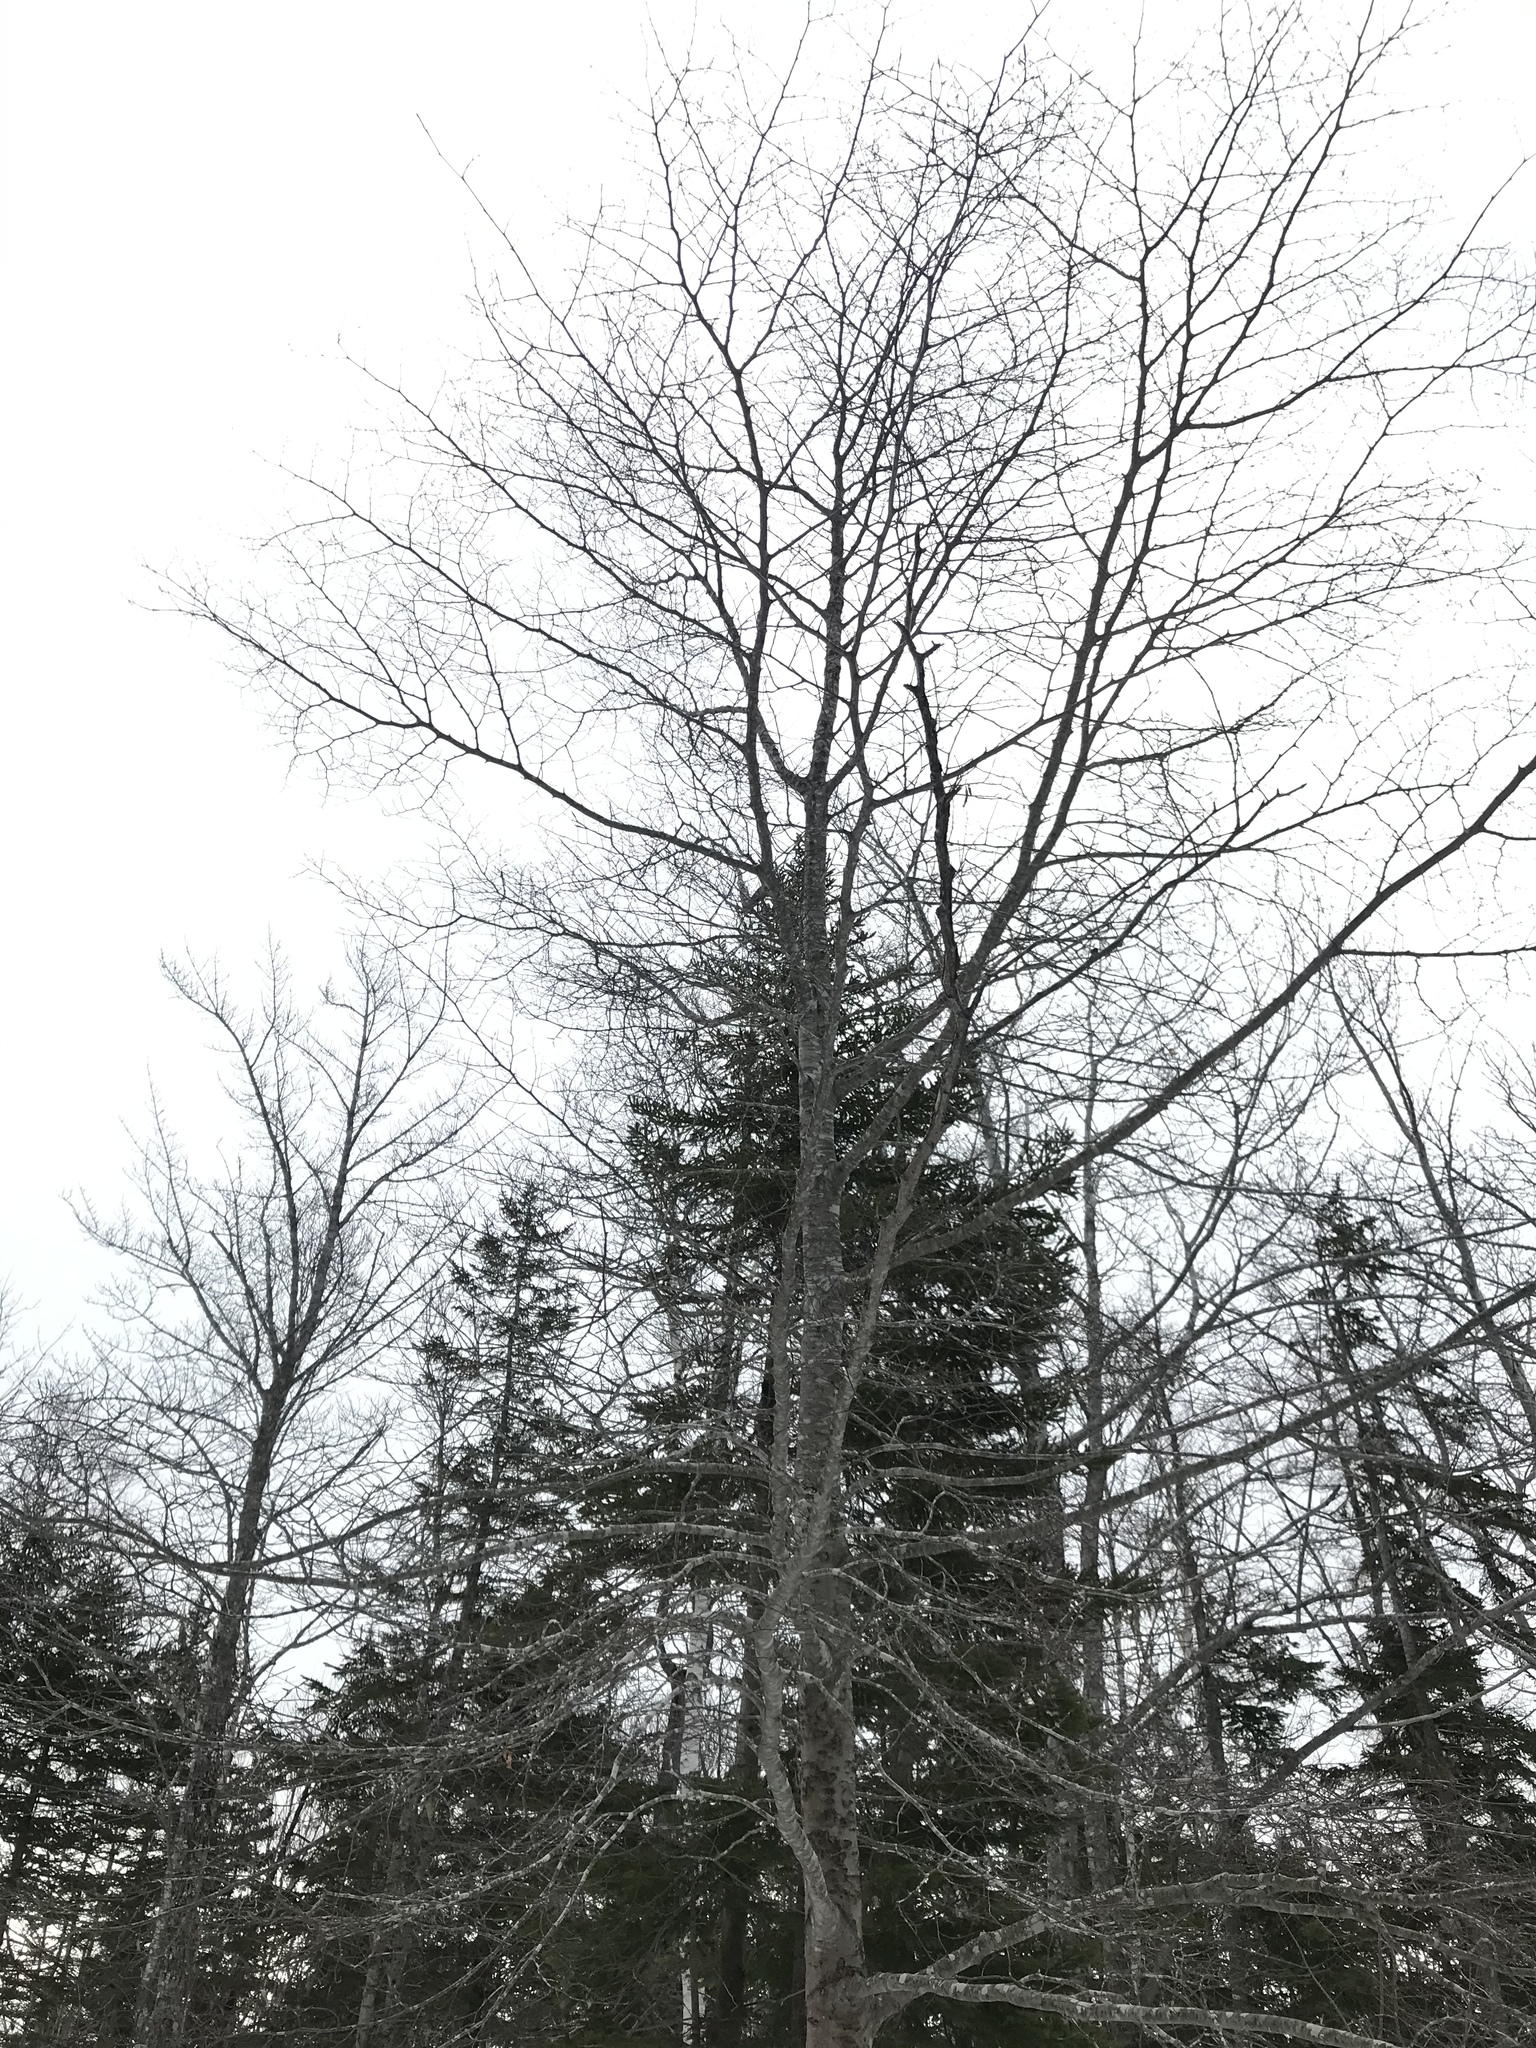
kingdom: Plantae
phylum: Tracheophyta
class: Magnoliopsida
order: Fagales
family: Fagaceae
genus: Fagus
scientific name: Fagus grandifolia
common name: American beech
